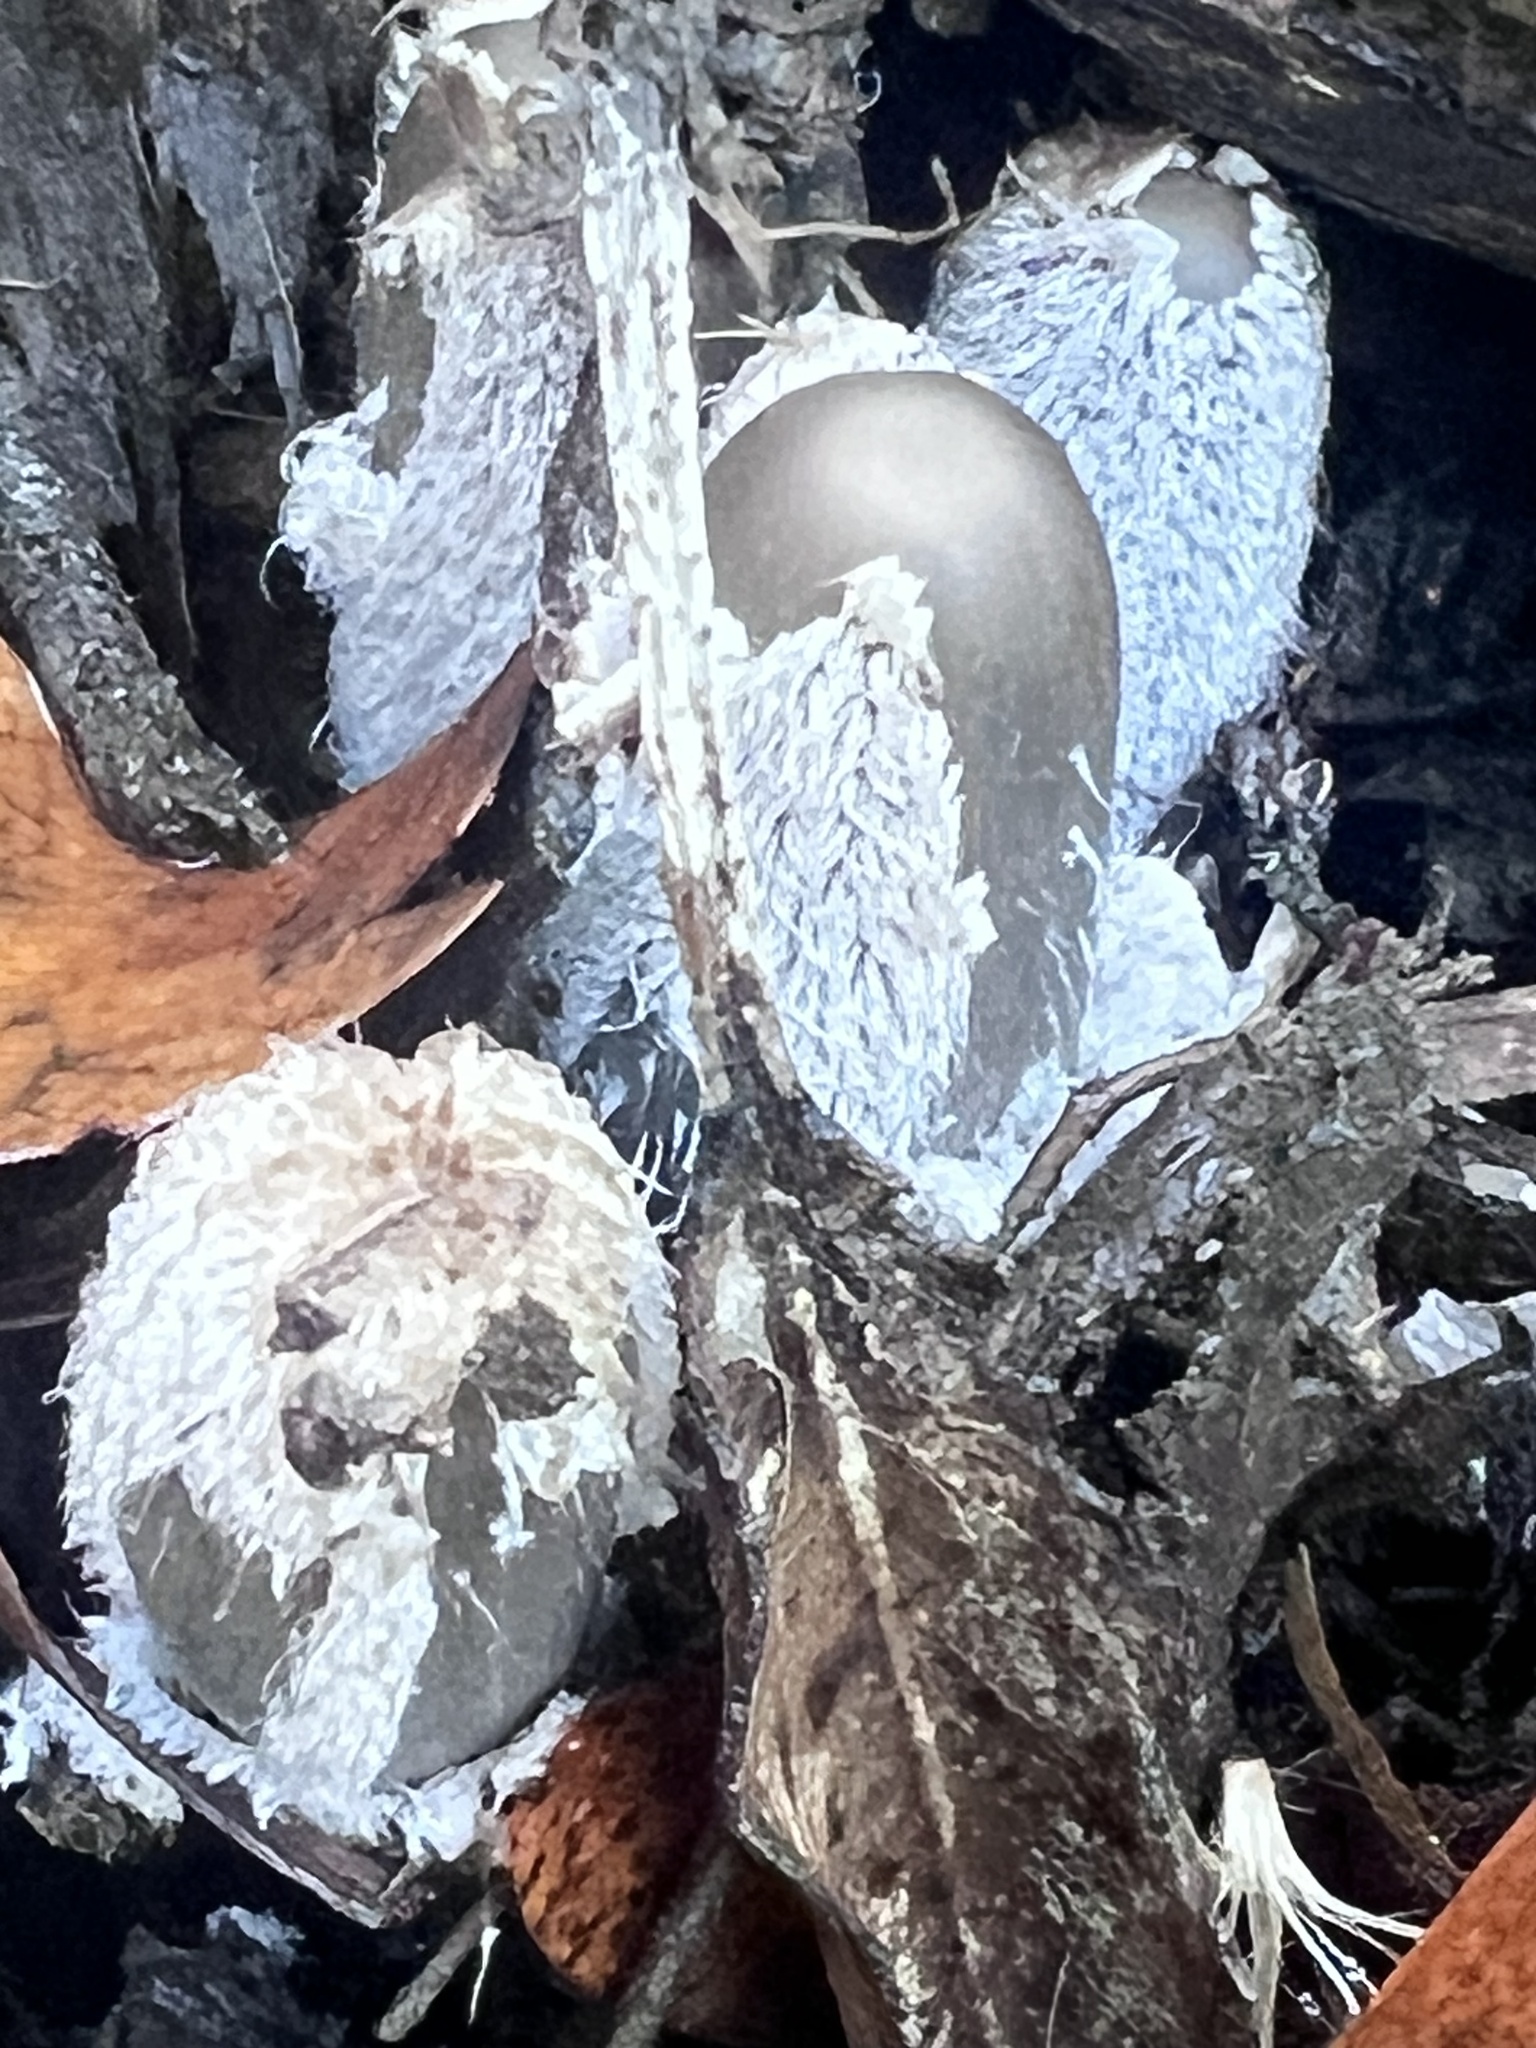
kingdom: Fungi
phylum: Basidiomycota
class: Agaricomycetes
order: Agaricales
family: Psathyrellaceae
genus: Coprinopsis
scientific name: Coprinopsis lagopus
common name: Hare'sfoot inkcap
